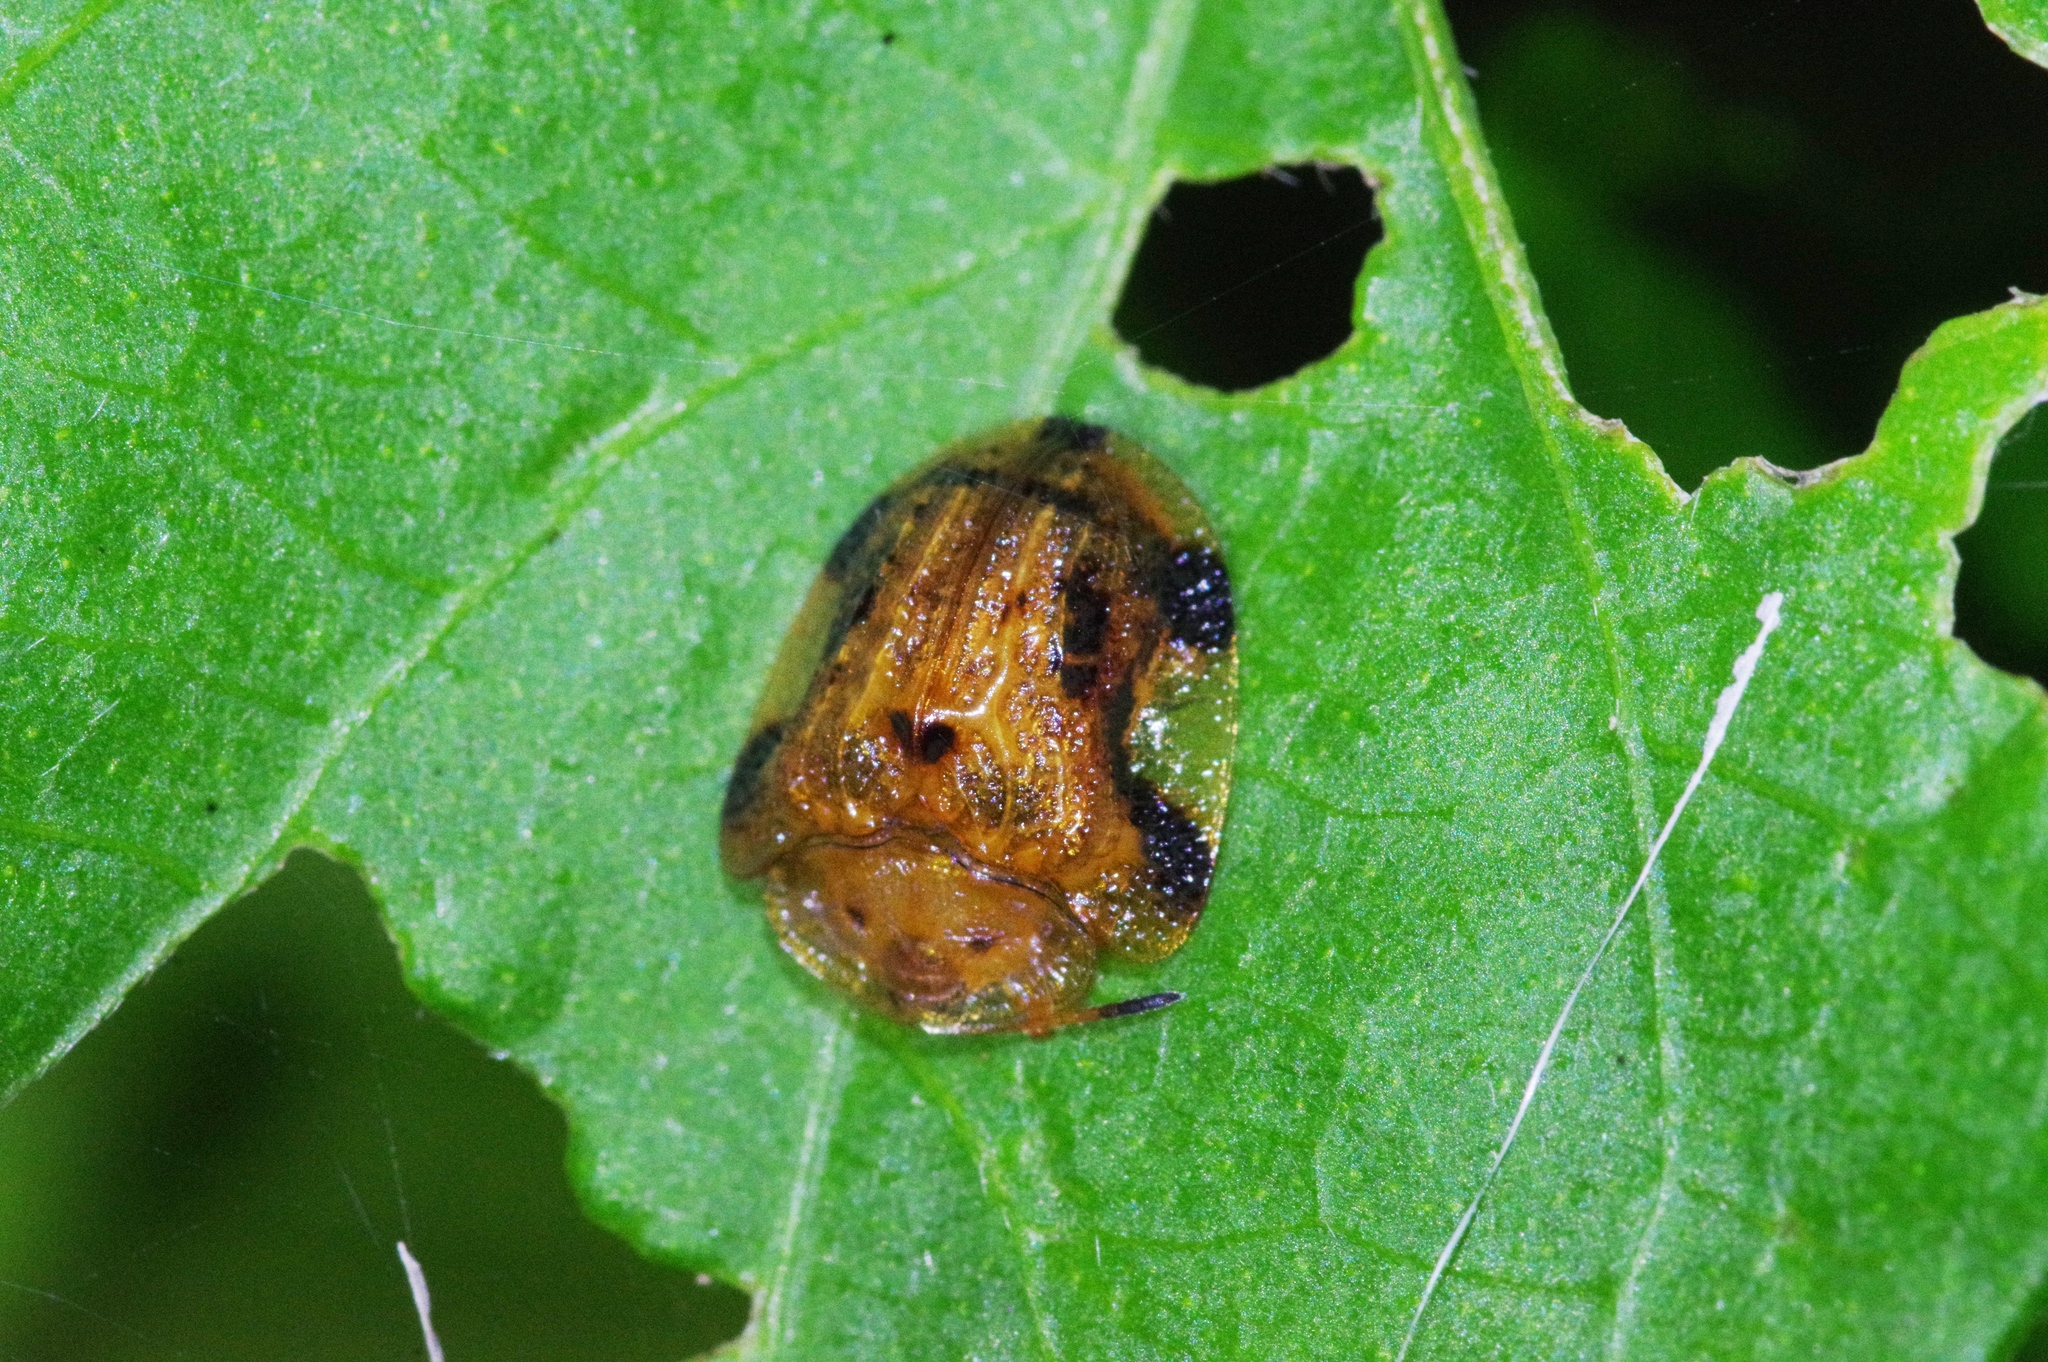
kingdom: Animalia
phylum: Arthropoda
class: Insecta
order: Coleoptera
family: Chrysomelidae
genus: Laccoptera
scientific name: Laccoptera nepalensis
